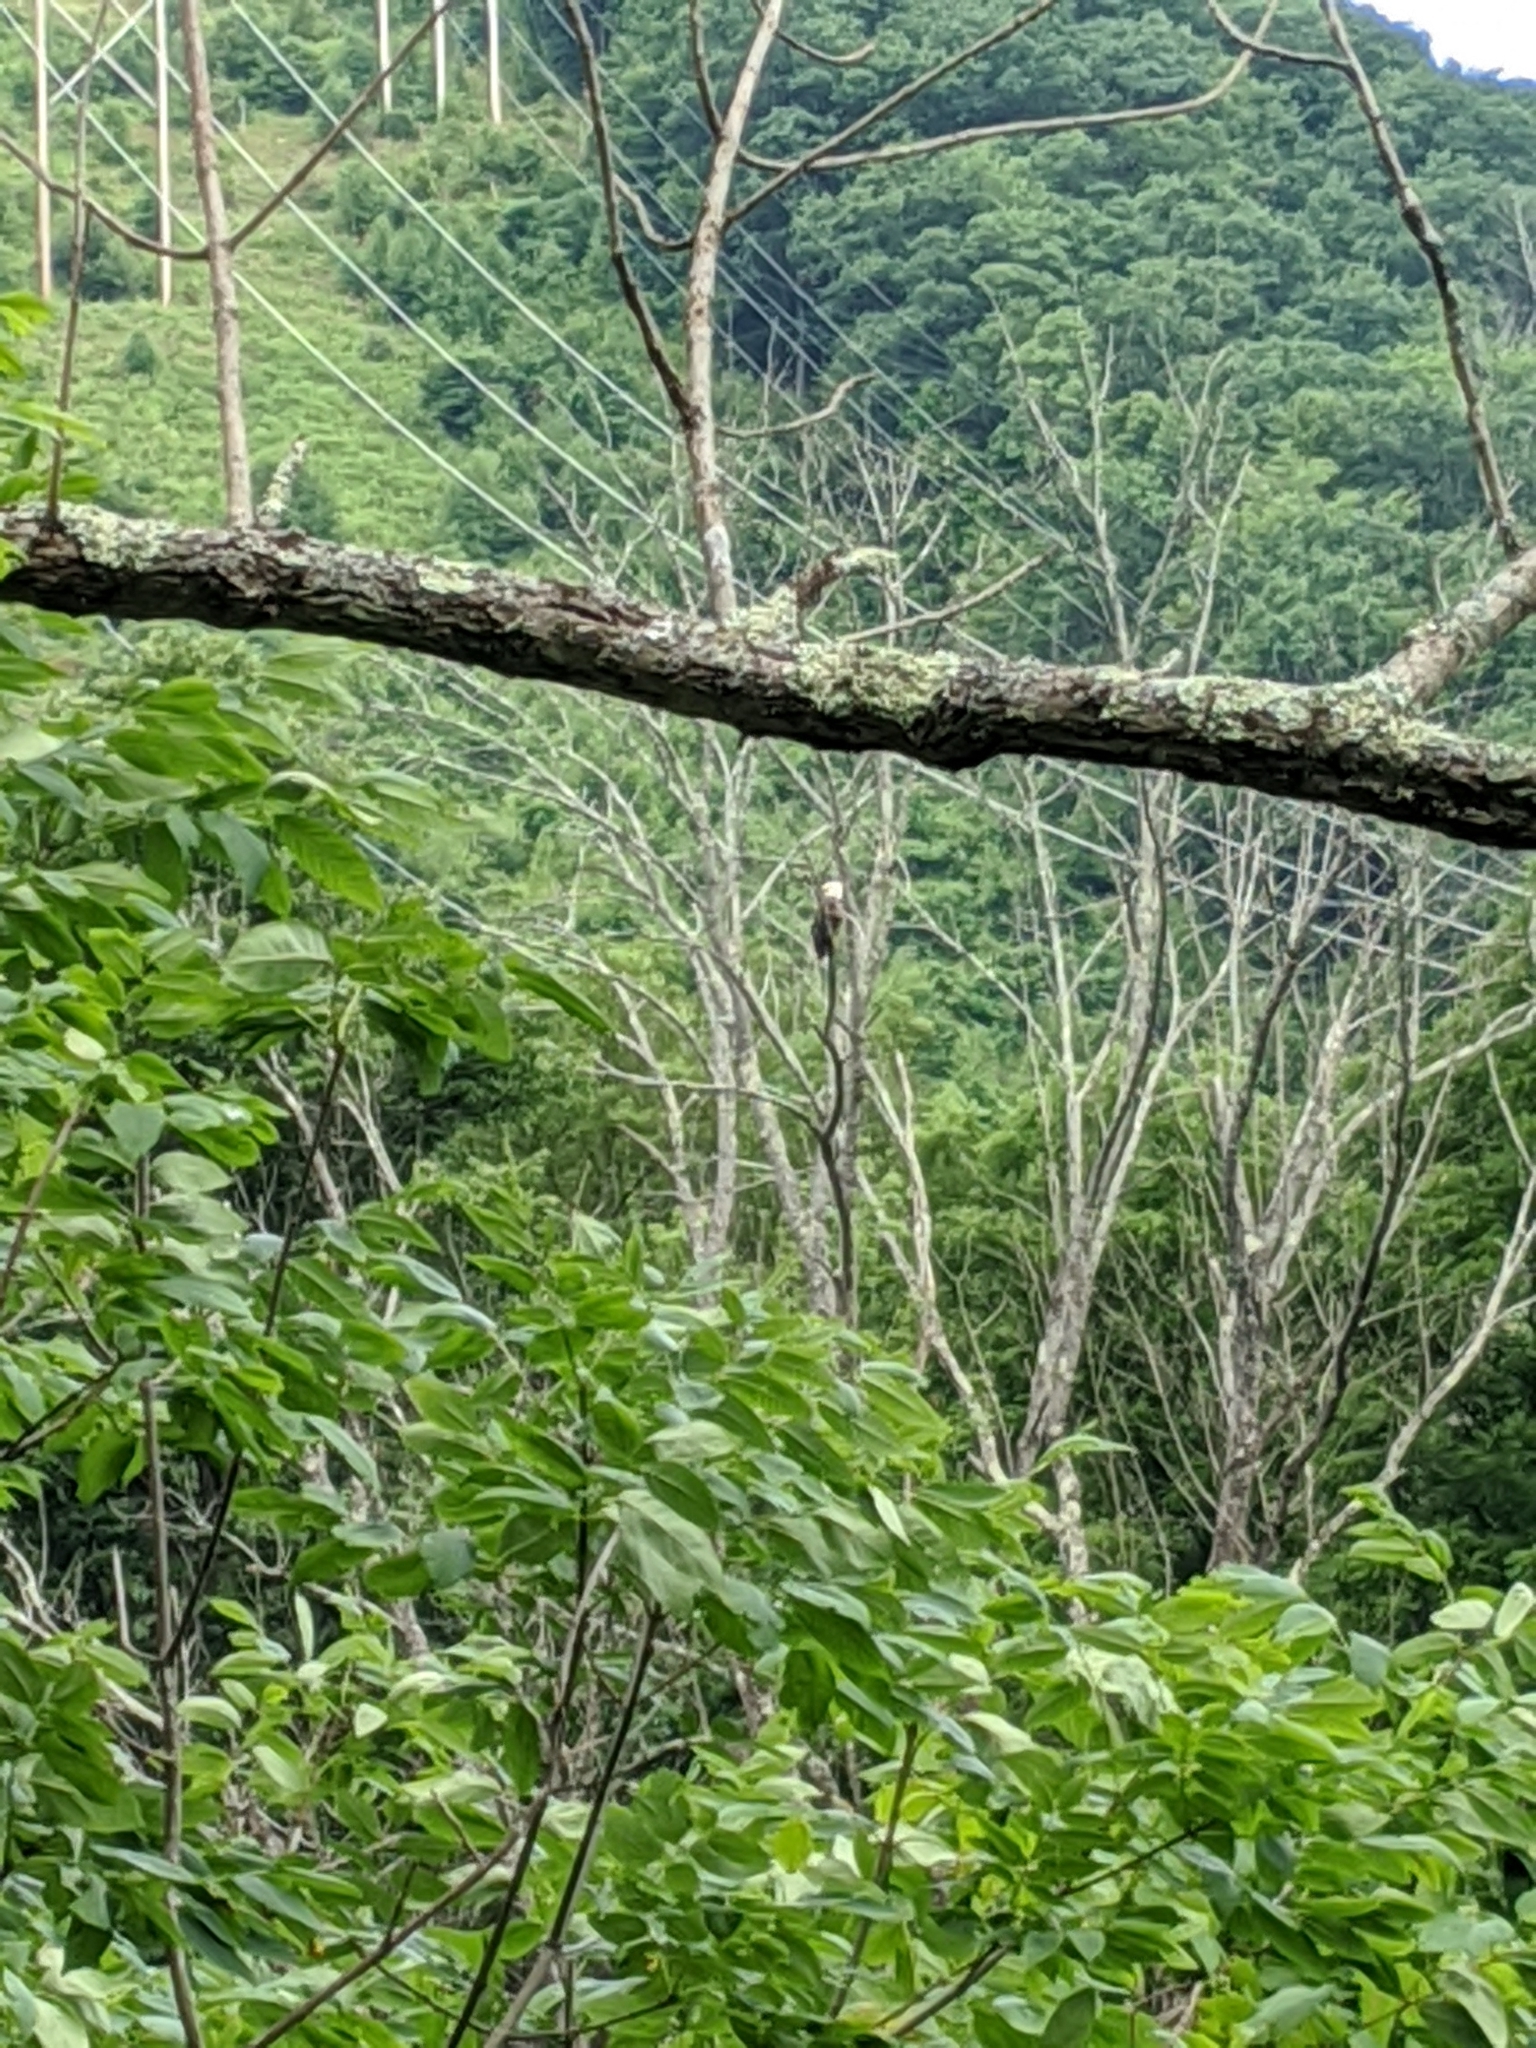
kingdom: Animalia
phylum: Chordata
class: Aves
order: Accipitriformes
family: Accipitridae
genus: Haliaeetus
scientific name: Haliaeetus leucocephalus
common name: Bald eagle
